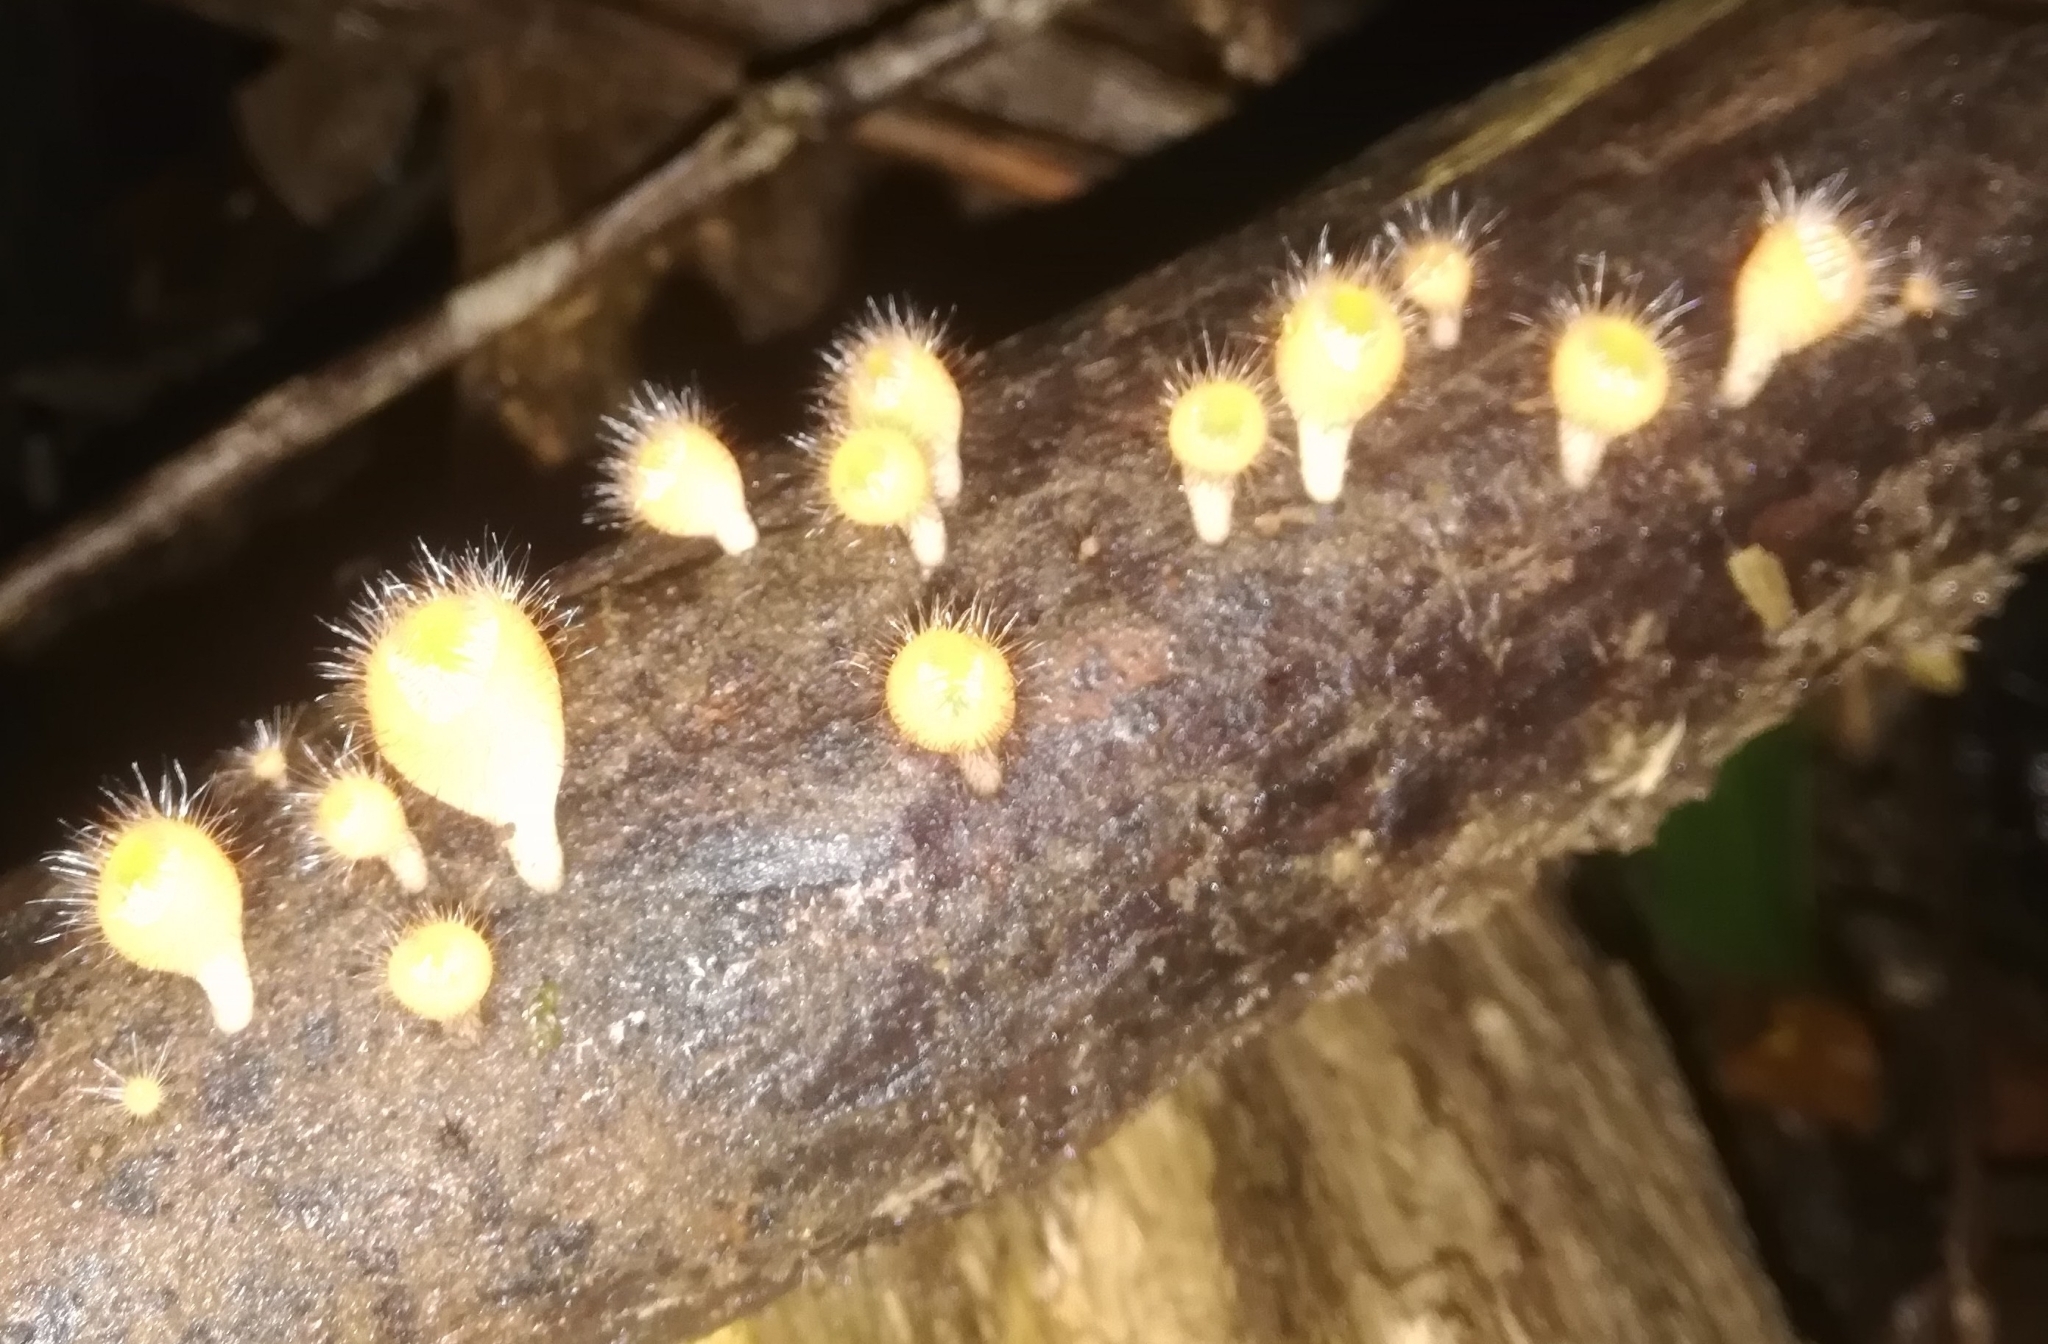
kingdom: Fungi
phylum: Ascomycota
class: Pezizomycetes
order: Pezizales
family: Sarcoscyphaceae
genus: Cookeina
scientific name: Cookeina tricholoma
